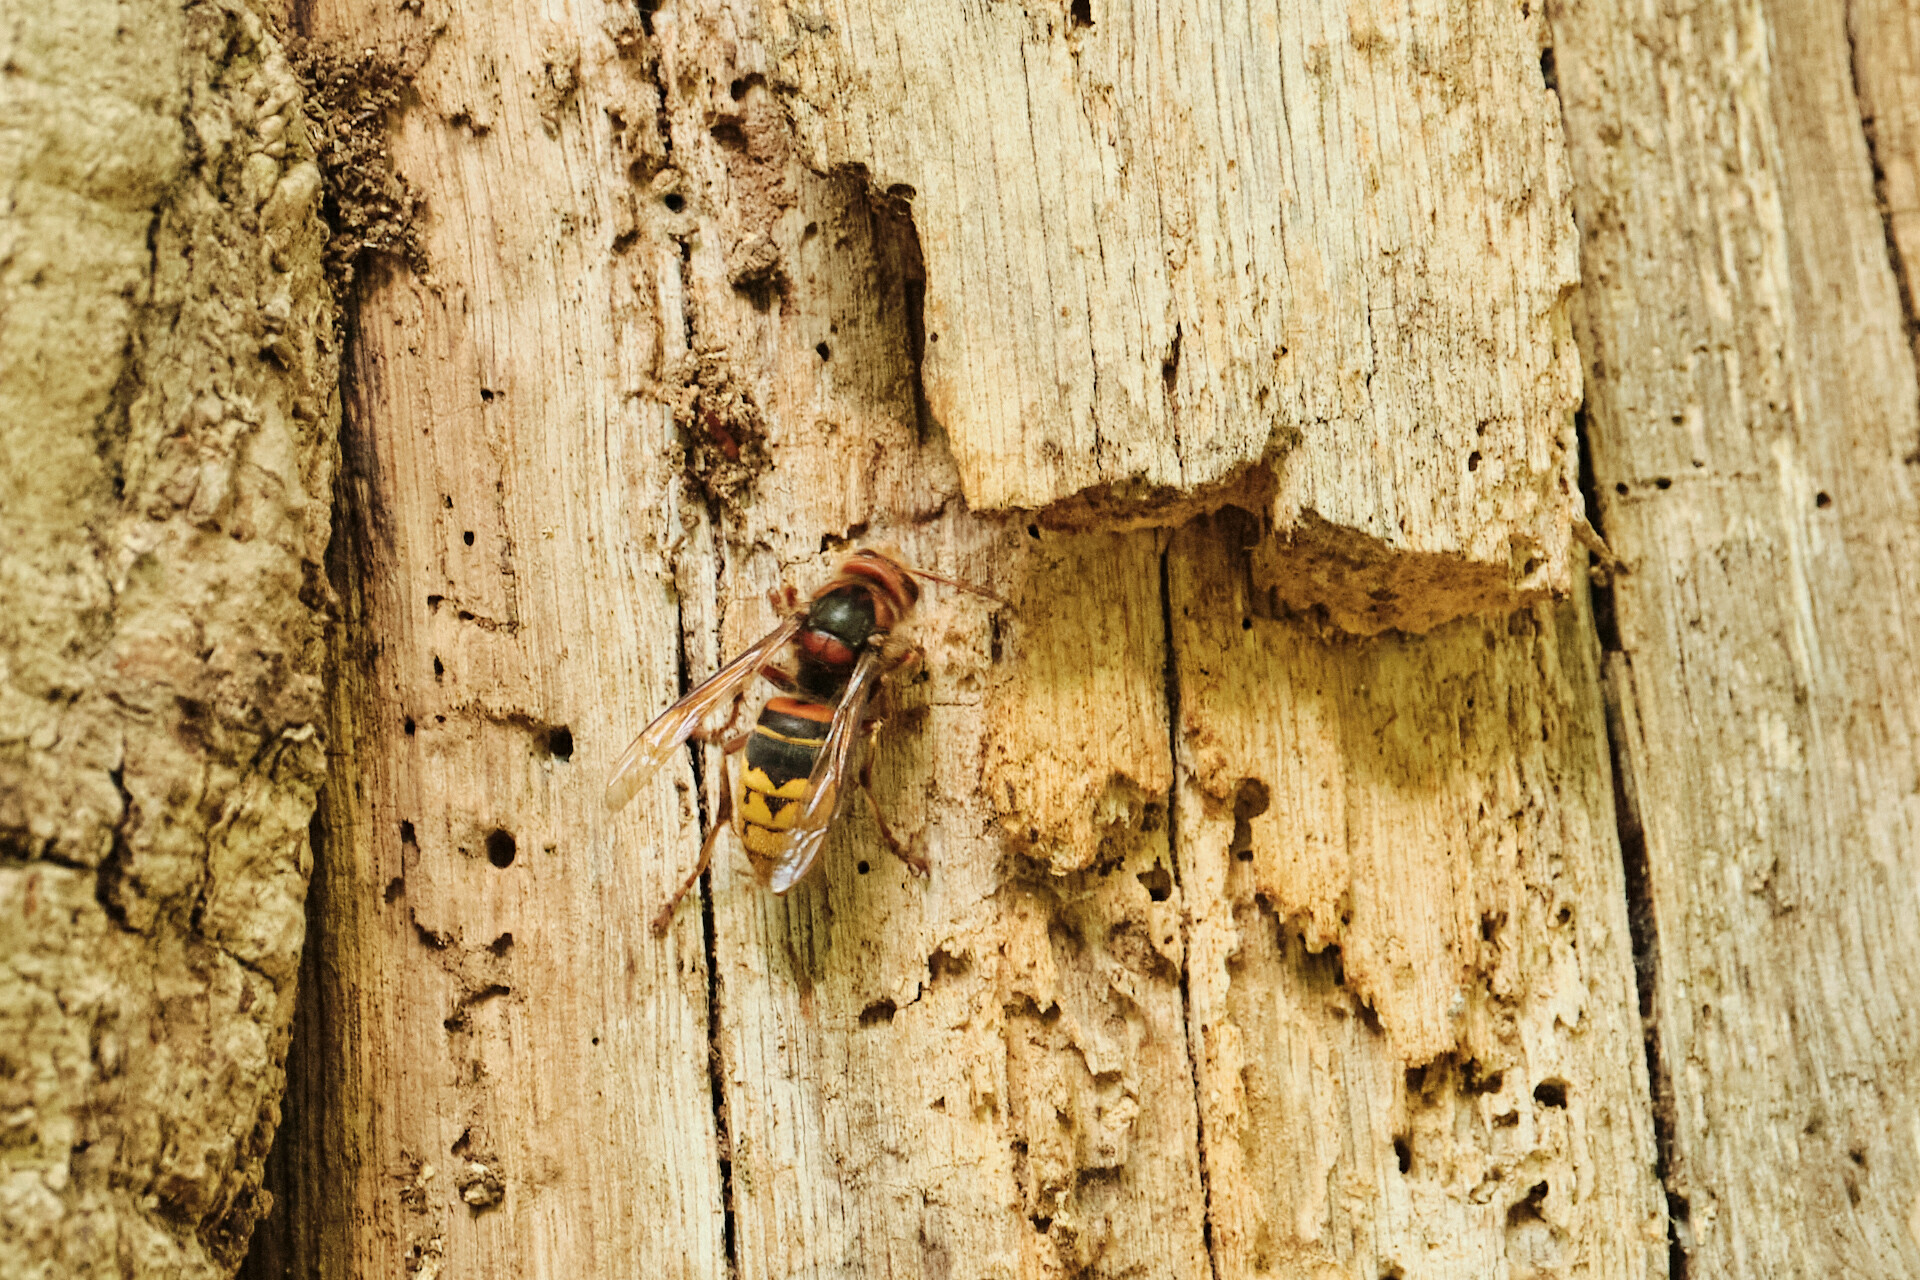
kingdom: Animalia
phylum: Arthropoda
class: Insecta
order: Hymenoptera
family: Vespidae
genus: Vespa
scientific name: Vespa crabro
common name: Hornet
